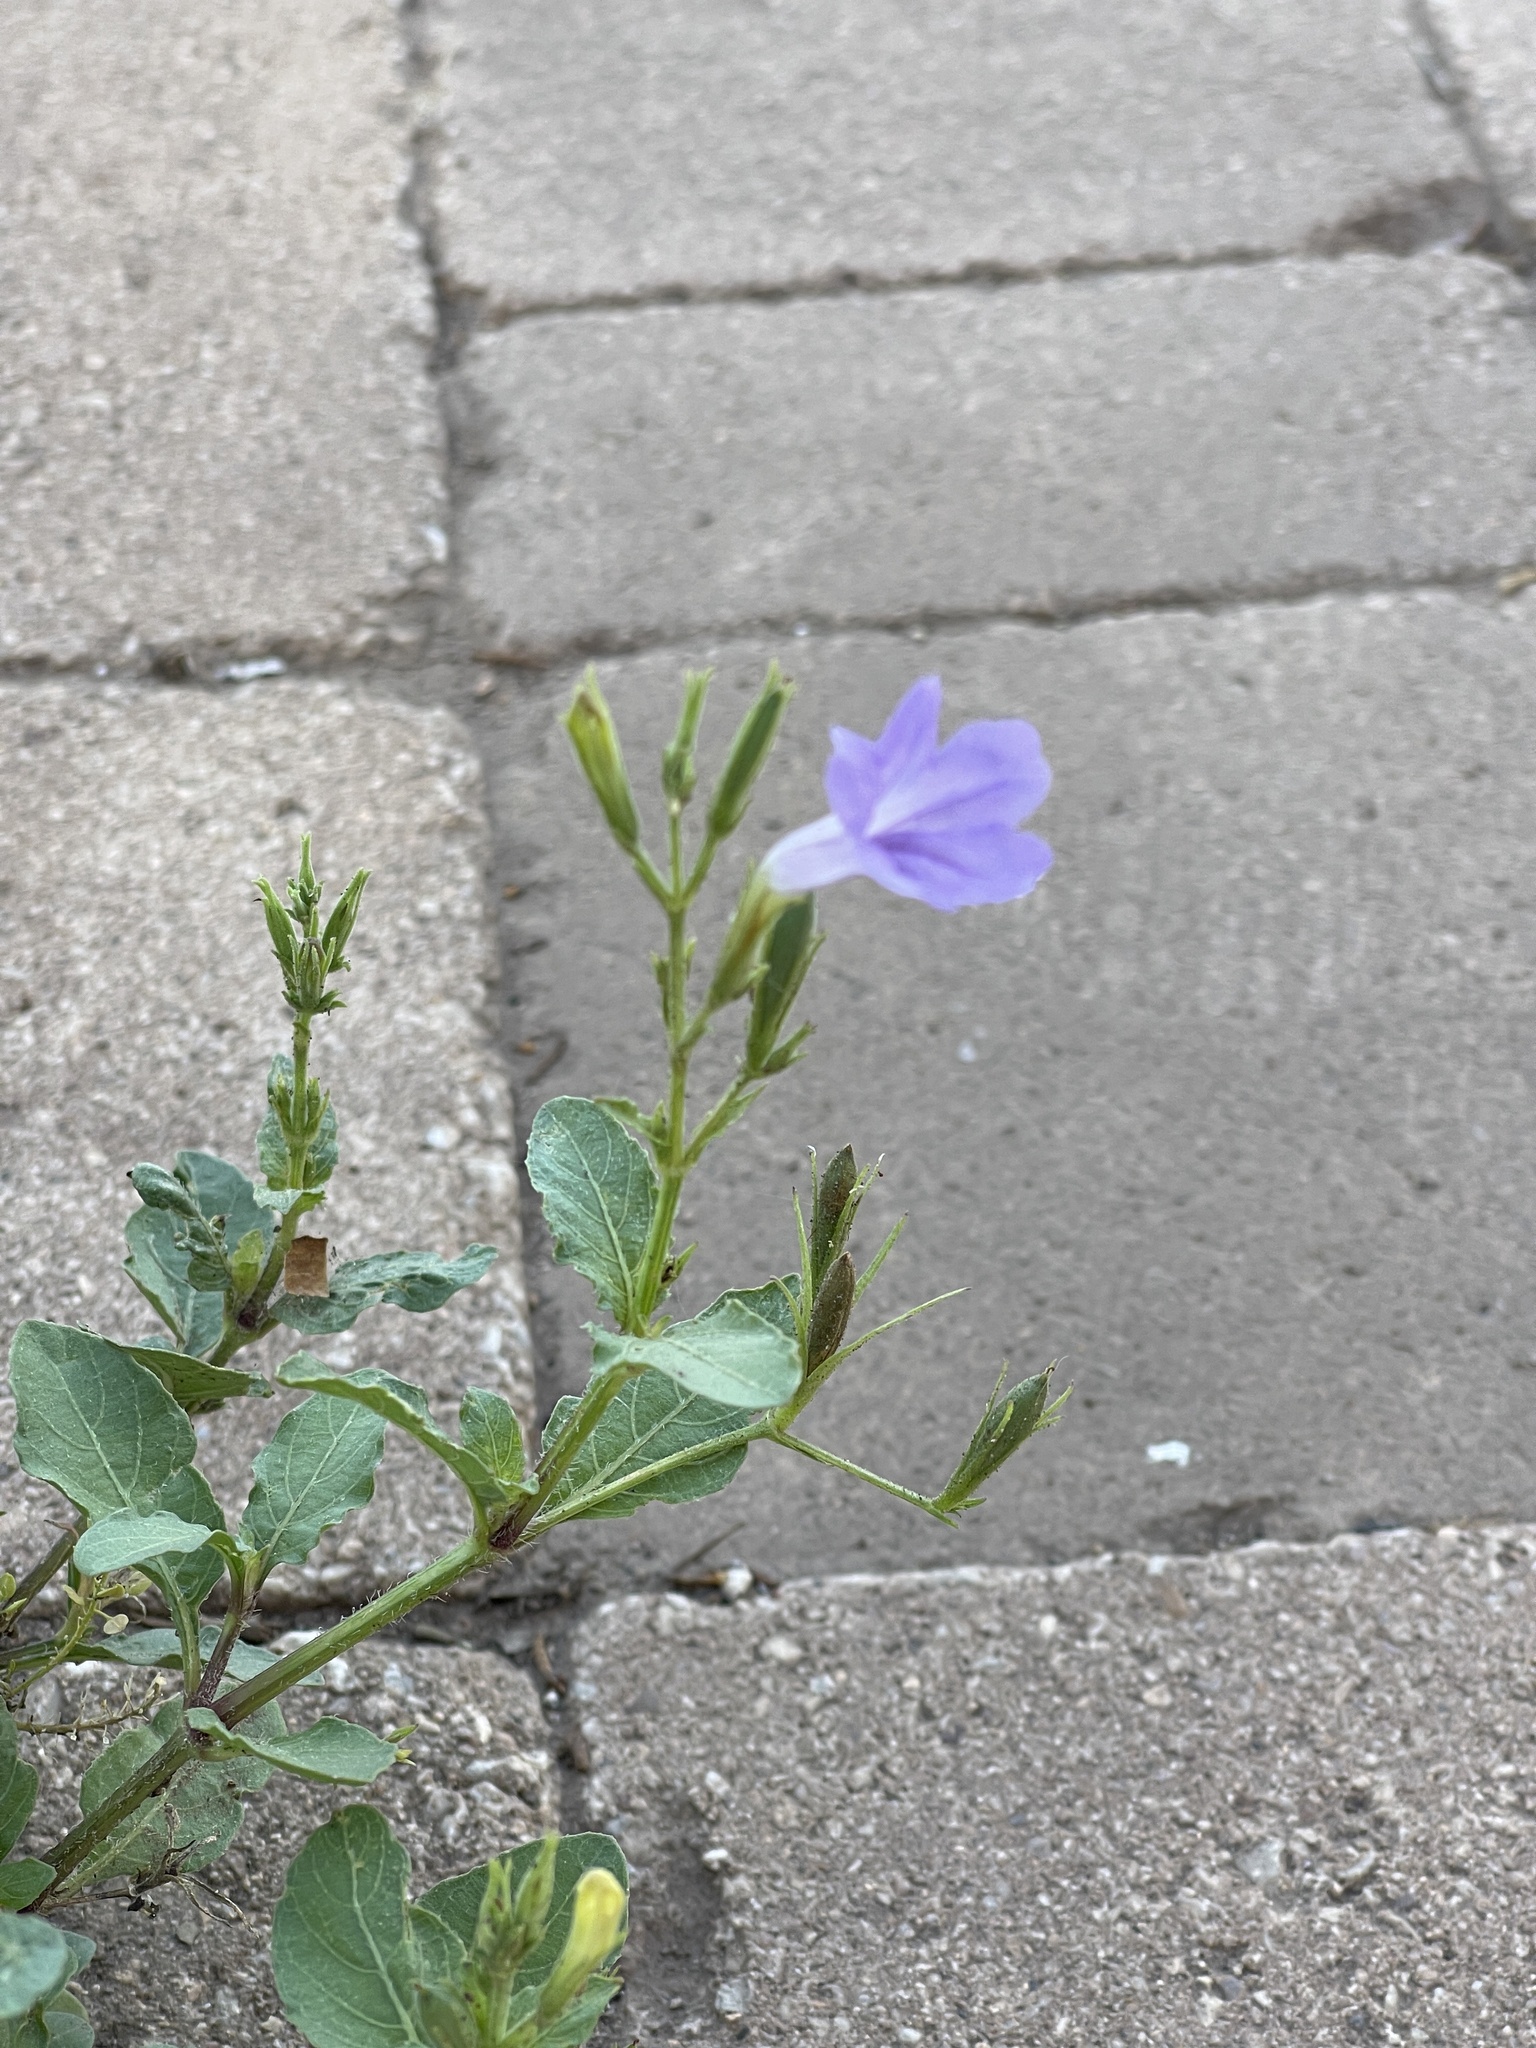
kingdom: Plantae
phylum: Tracheophyta
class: Magnoliopsida
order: Lamiales
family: Acanthaceae
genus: Ruellia
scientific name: Ruellia ciliatiflora
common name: Hairyflower wild petunia
